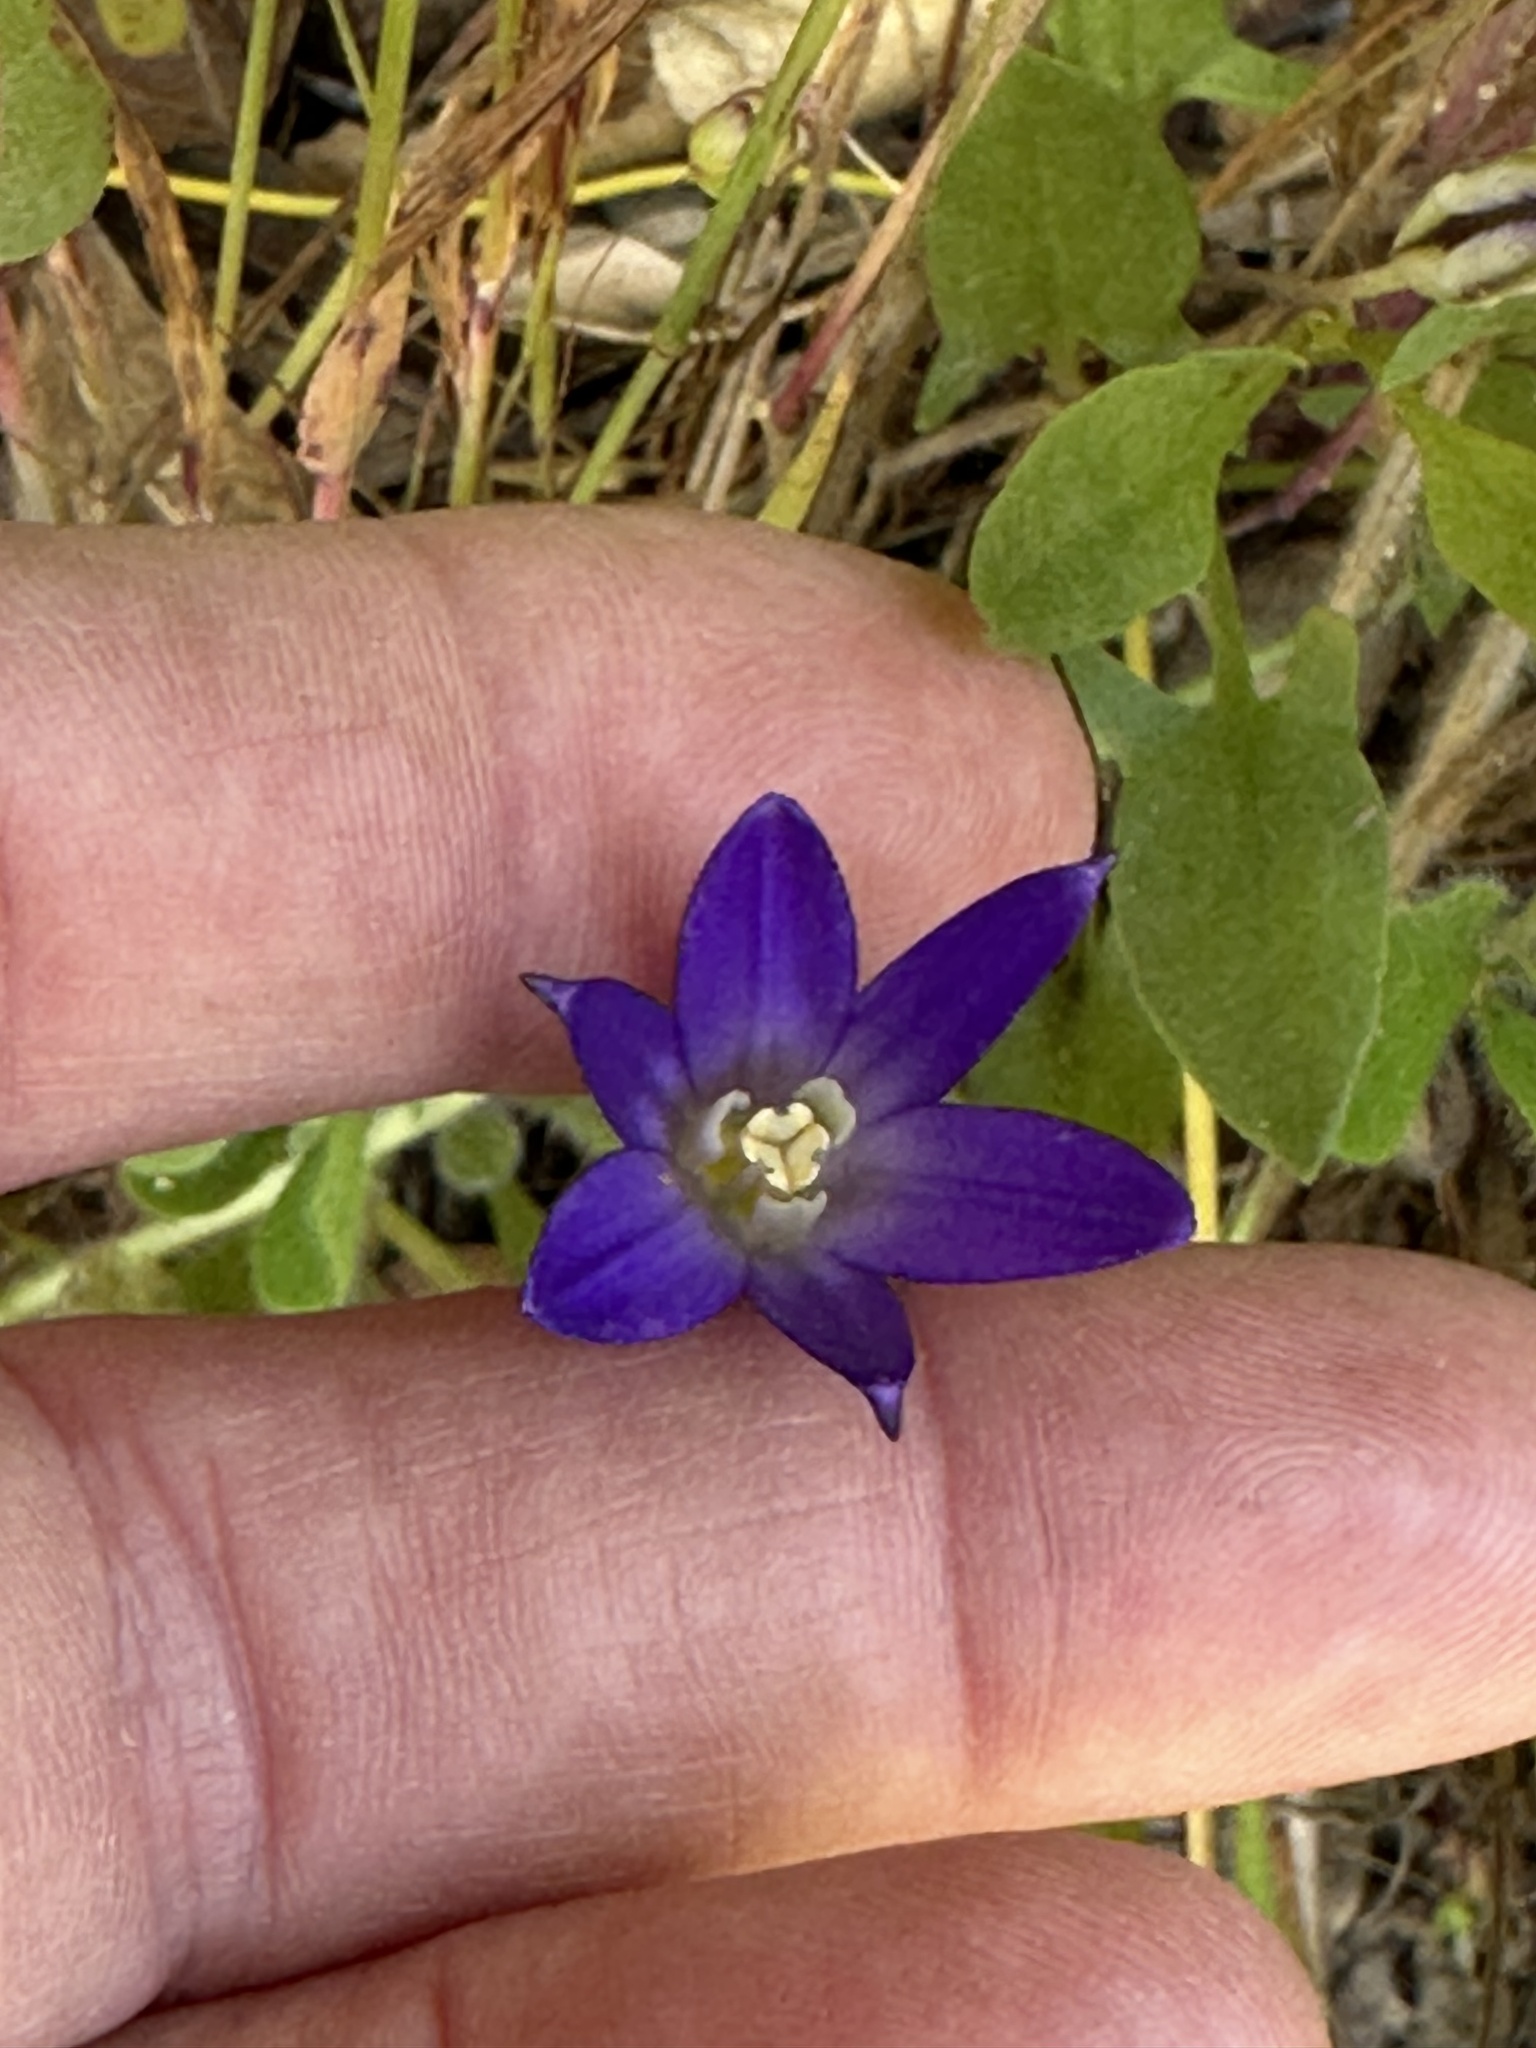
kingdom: Plantae
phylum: Tracheophyta
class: Liliopsida
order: Asparagales
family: Asparagaceae
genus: Brodiaea
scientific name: Brodiaea terrestris
